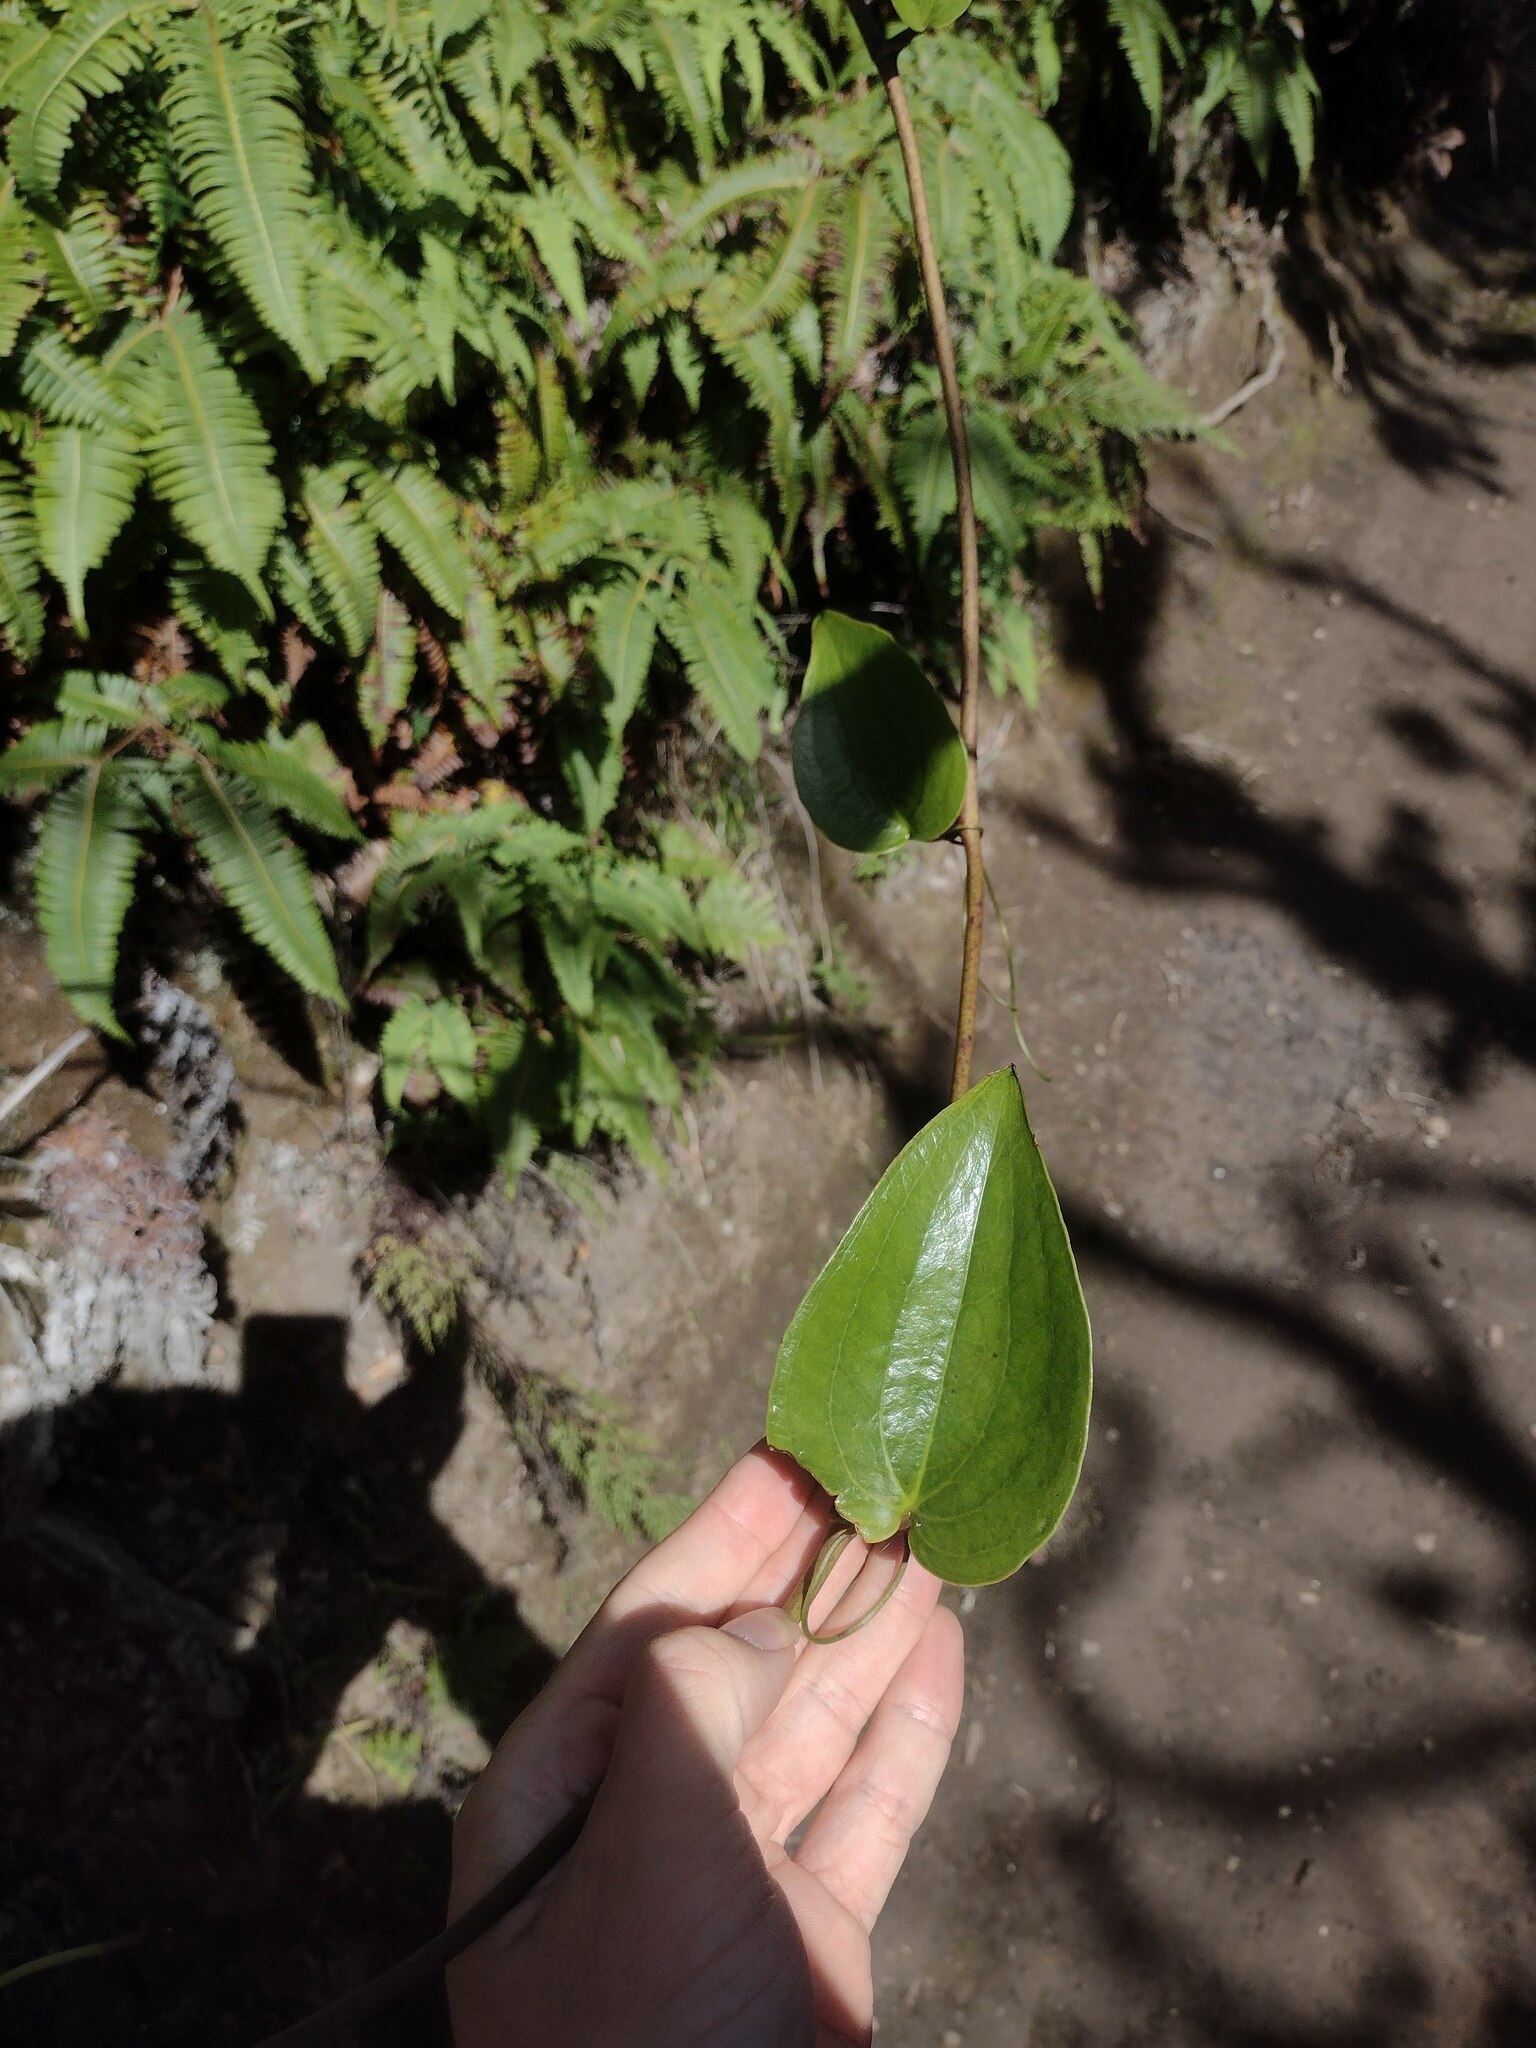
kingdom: Plantae
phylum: Tracheophyta
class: Liliopsida
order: Liliales
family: Smilacaceae
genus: Smilax
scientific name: Smilax melastomifolia
